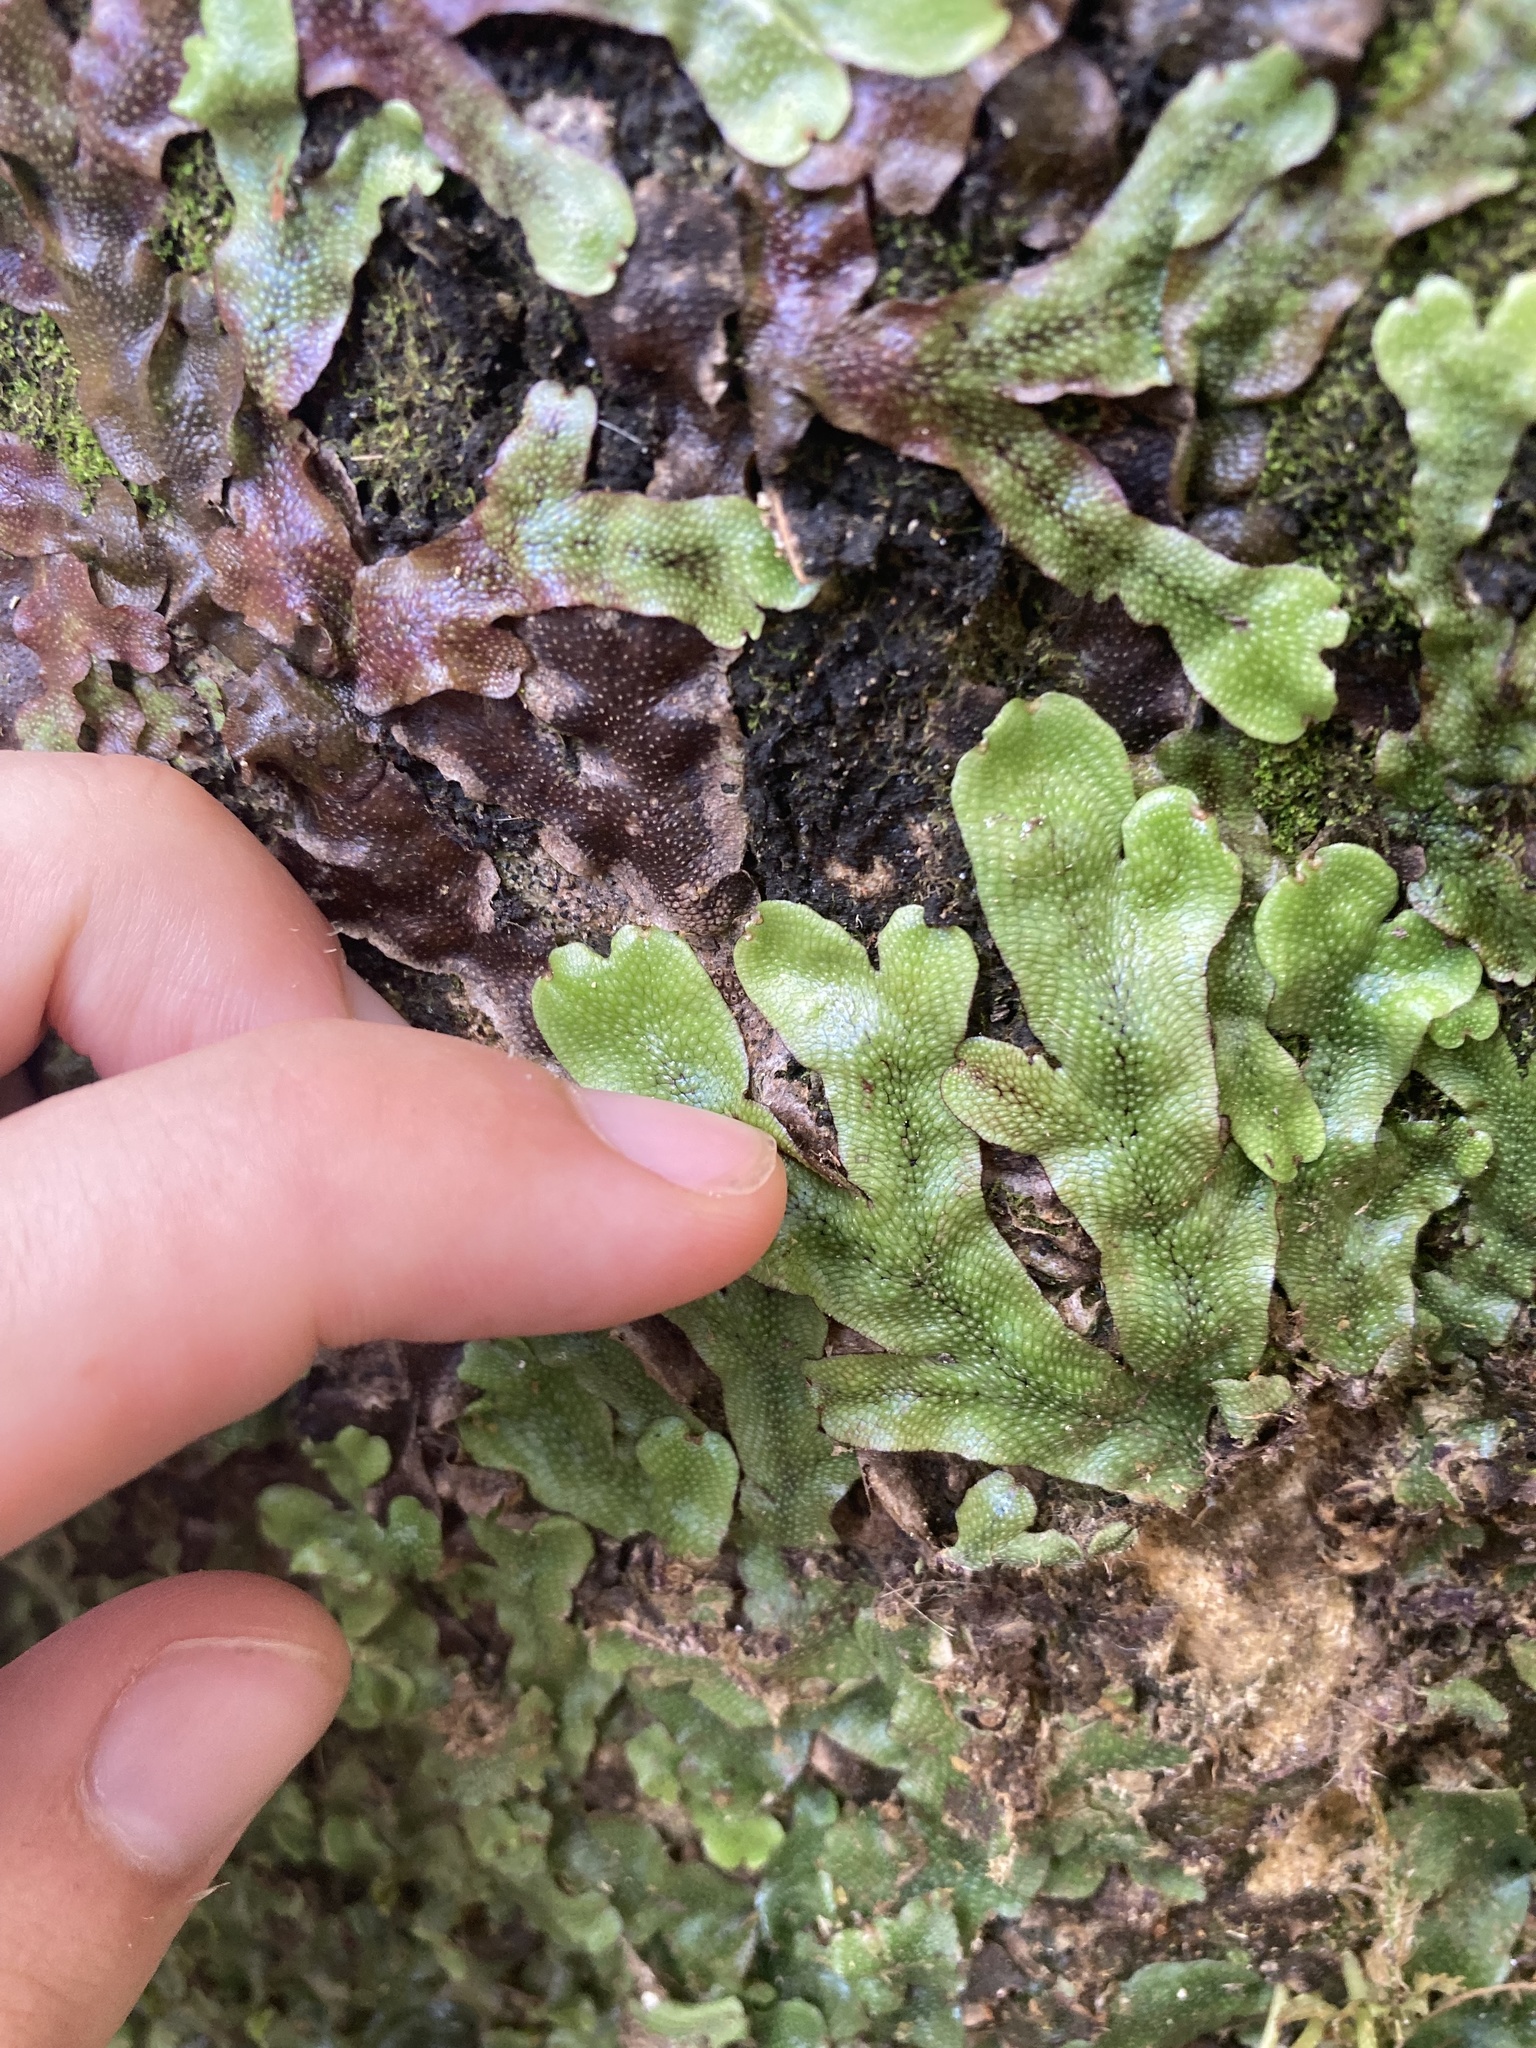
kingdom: Plantae
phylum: Marchantiophyta
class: Marchantiopsida
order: Marchantiales
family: Conocephalaceae
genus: Conocephalum
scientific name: Conocephalum conicum
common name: Great scented liverwort
